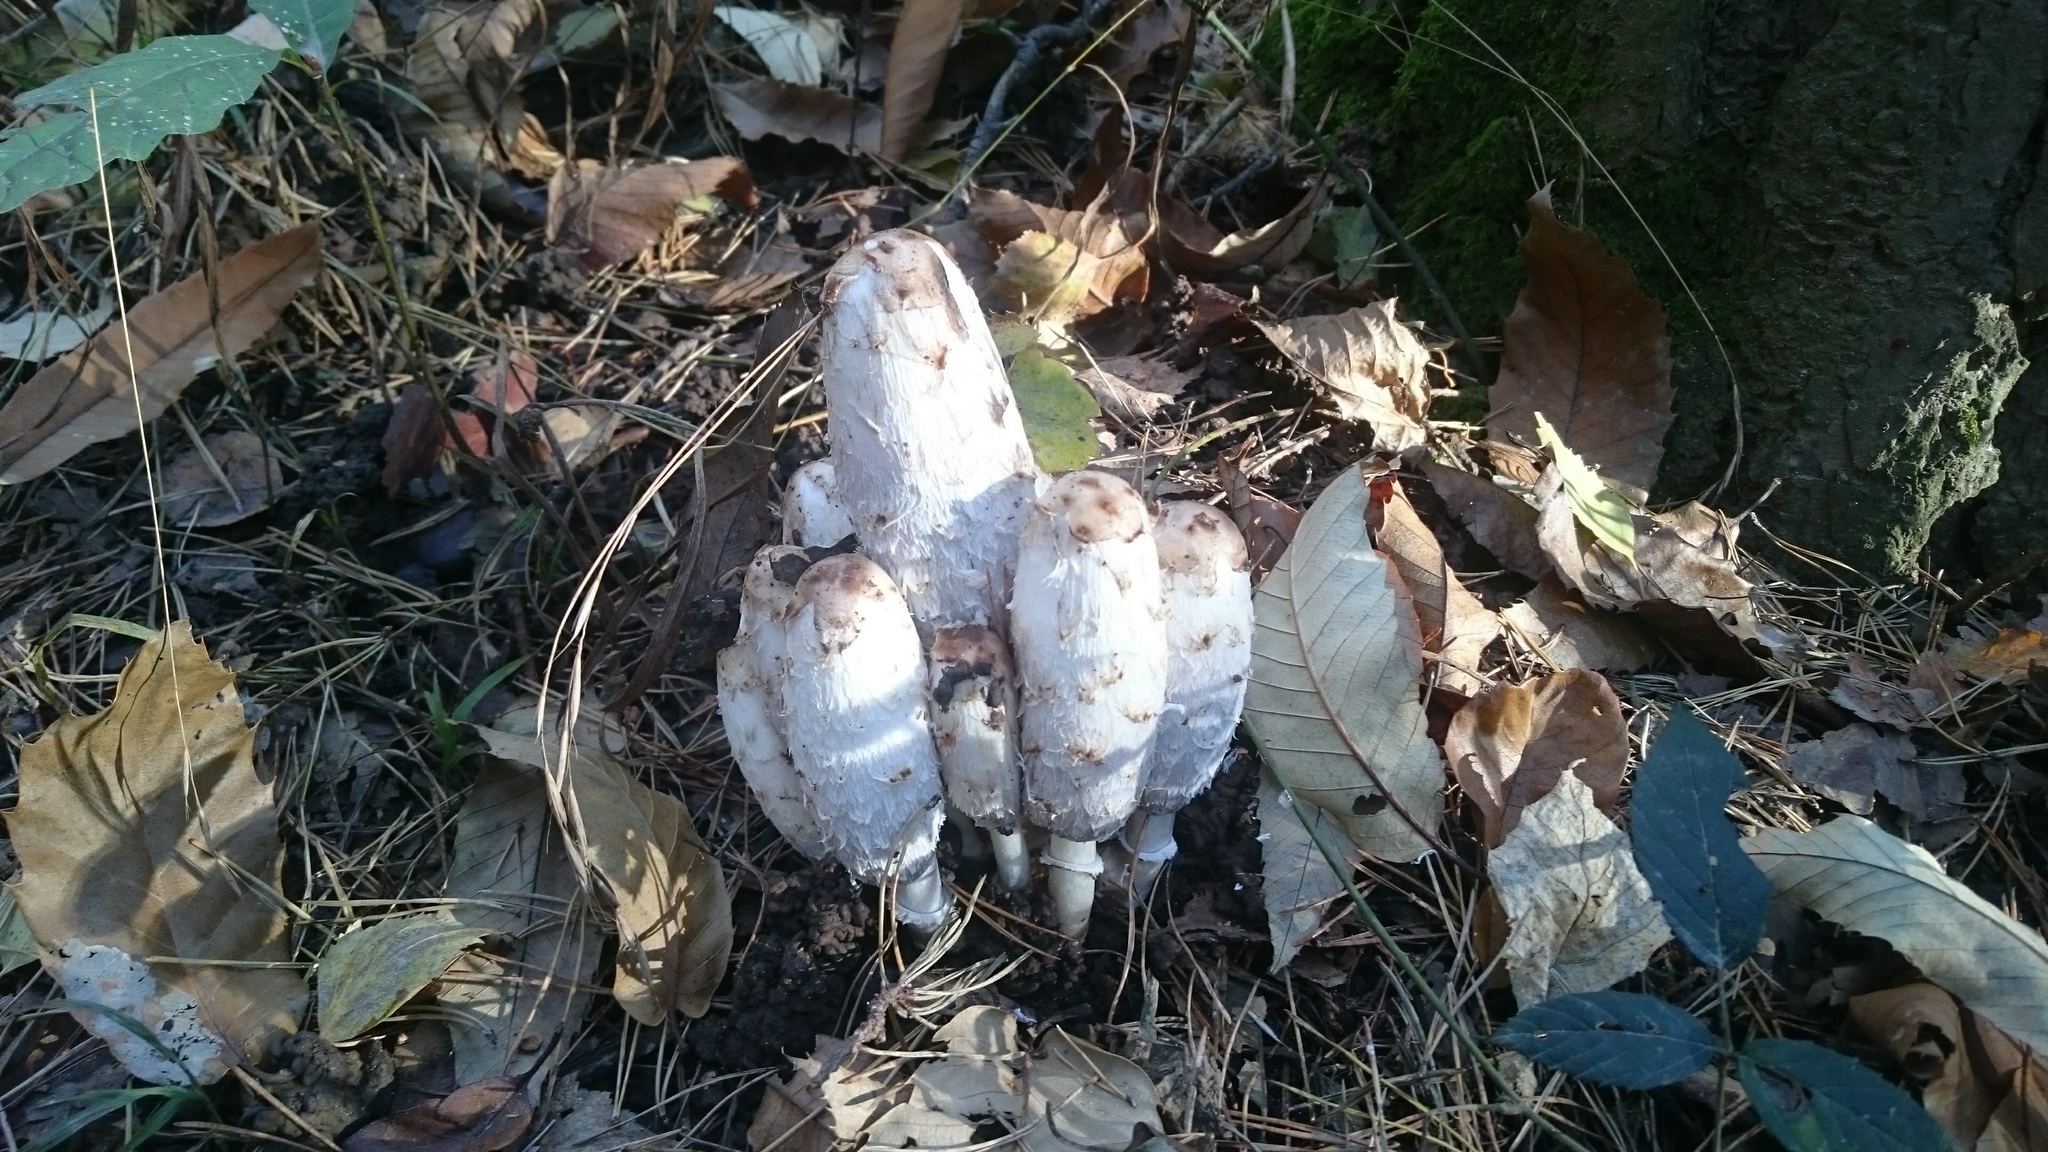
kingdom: Fungi
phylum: Basidiomycota
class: Agaricomycetes
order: Agaricales
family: Agaricaceae
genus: Coprinus
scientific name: Coprinus comatus
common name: Lawyer's wig
